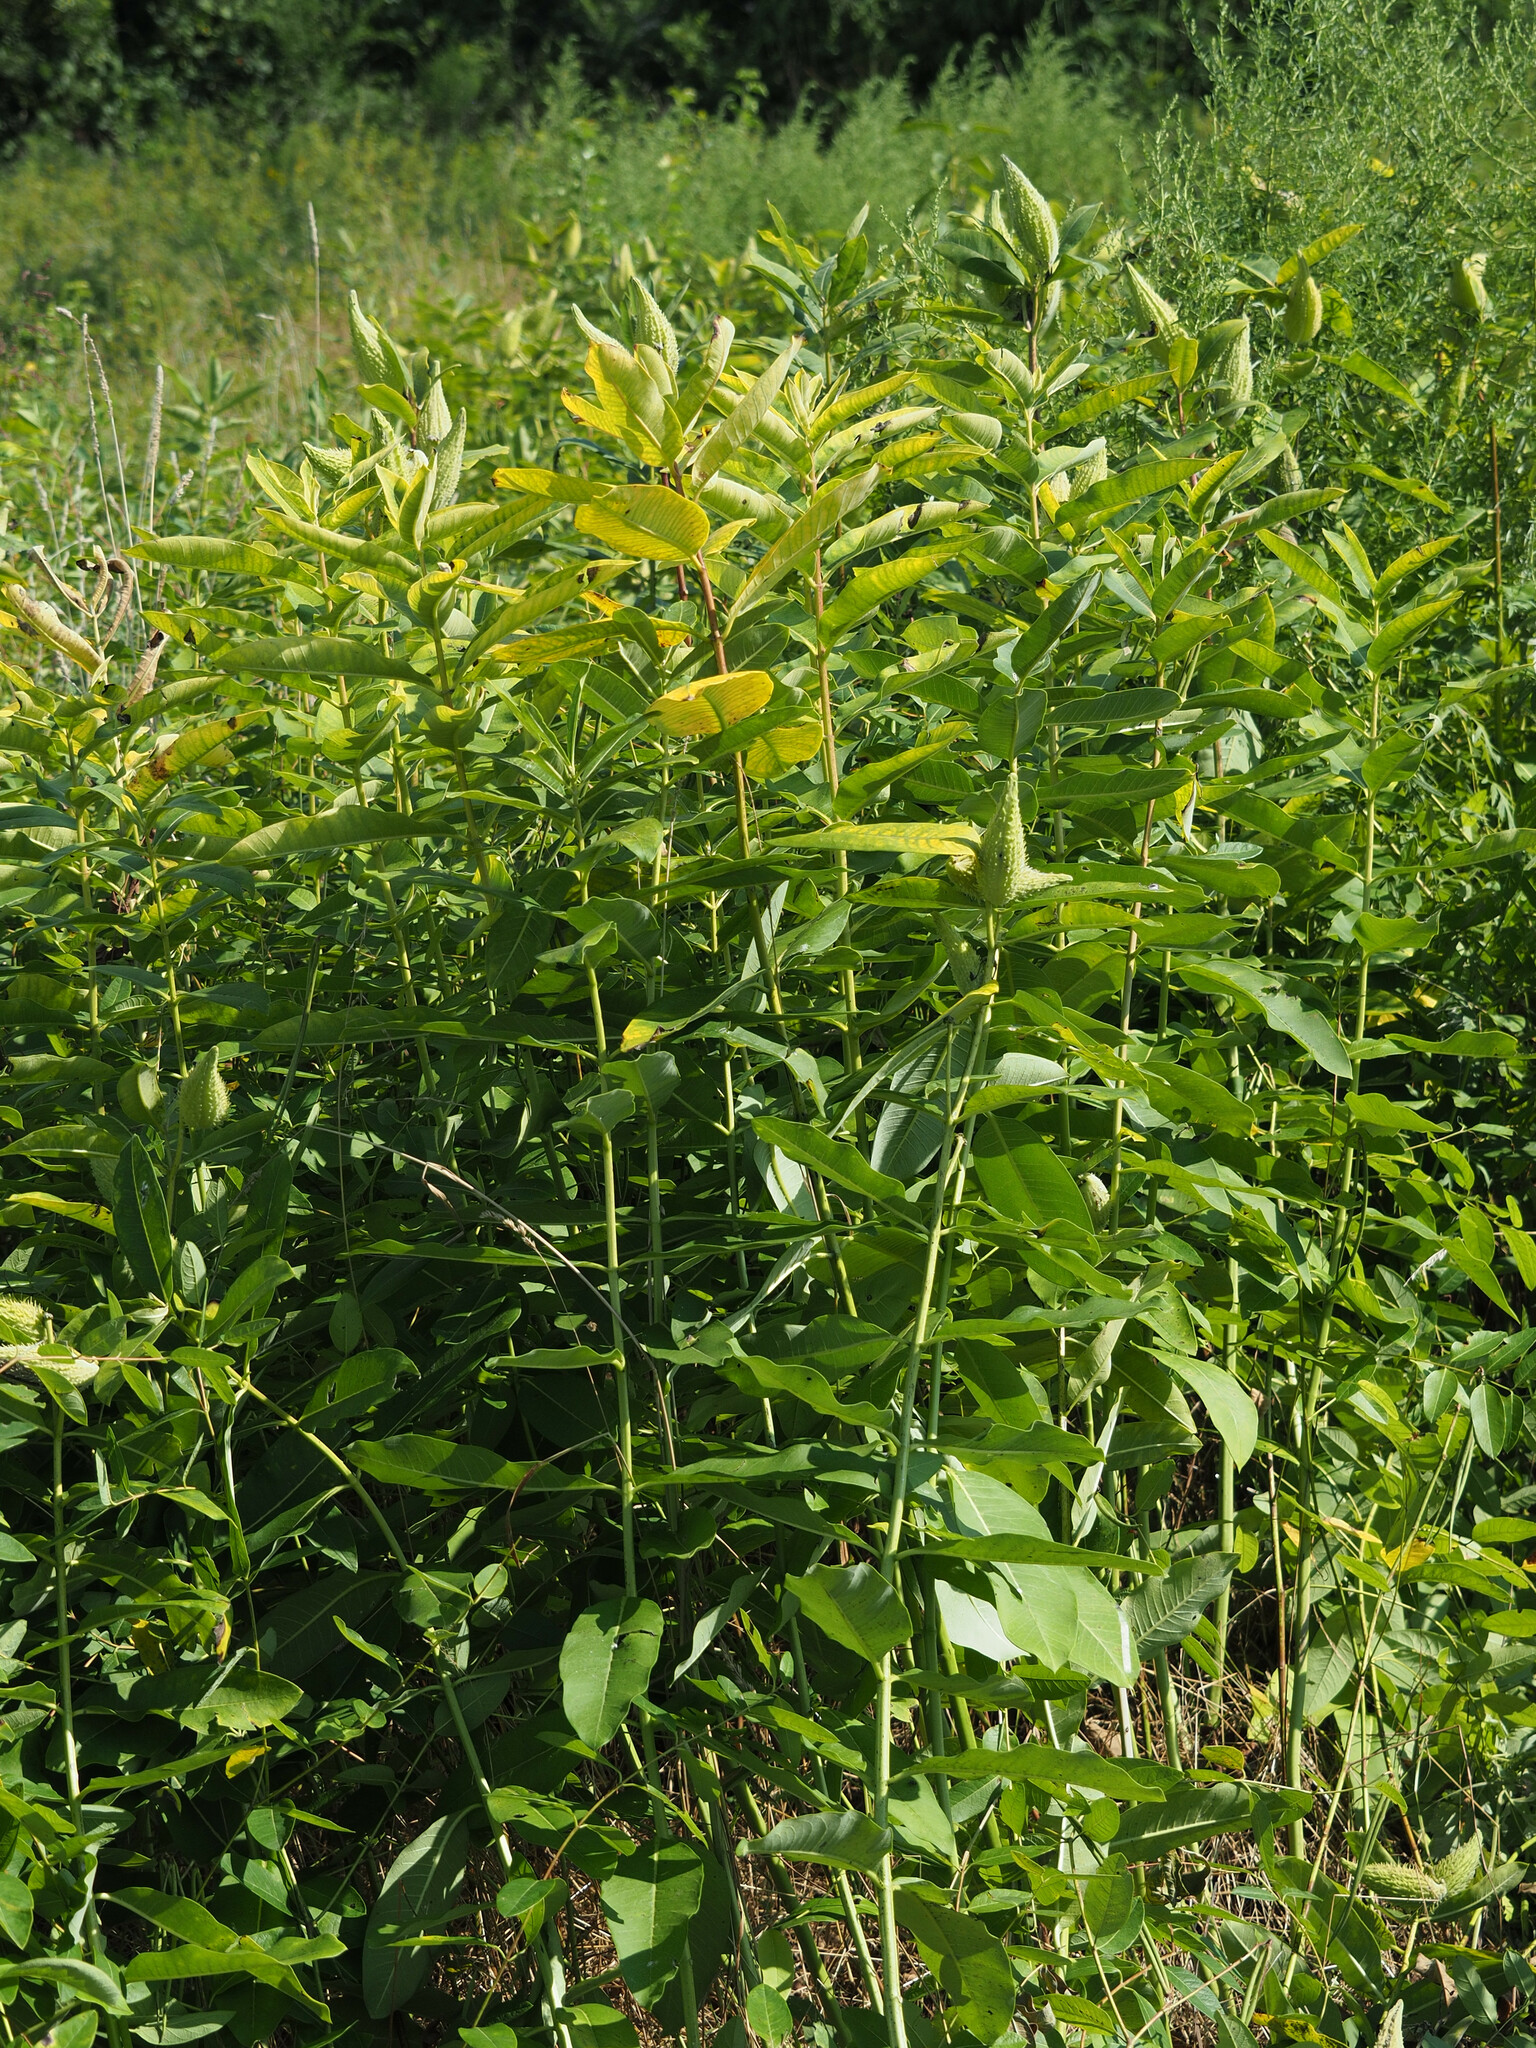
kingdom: Plantae
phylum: Tracheophyta
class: Magnoliopsida
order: Gentianales
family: Apocynaceae
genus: Asclepias
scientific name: Asclepias syriaca
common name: Common milkweed
